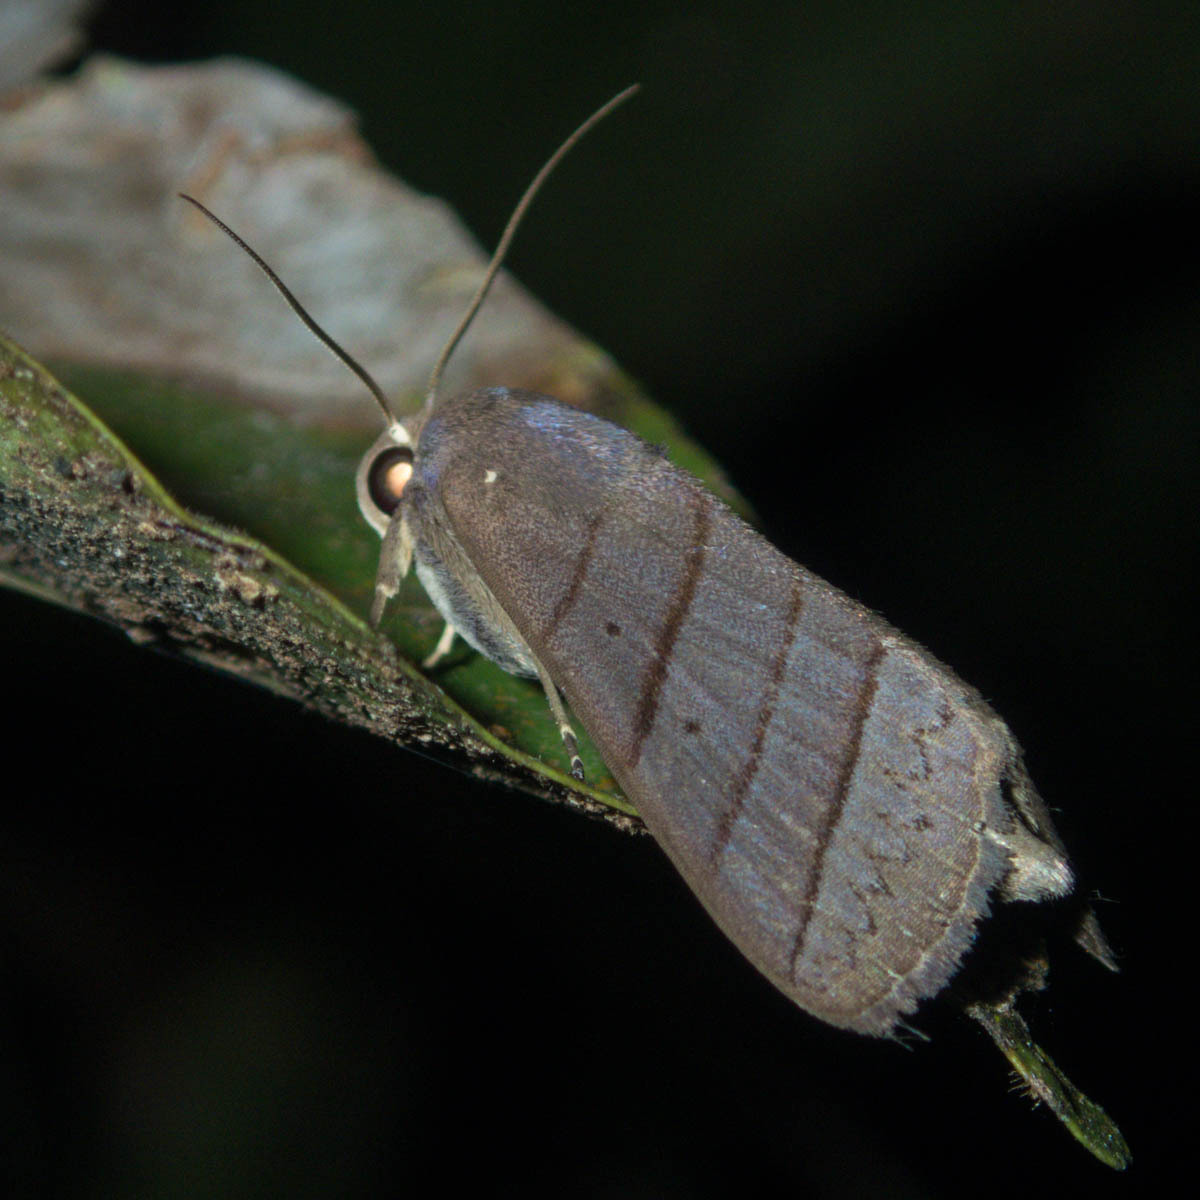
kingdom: Animalia
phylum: Arthropoda
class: Insecta
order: Lepidoptera
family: Erebidae
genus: Asta
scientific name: Asta quadrilinea
